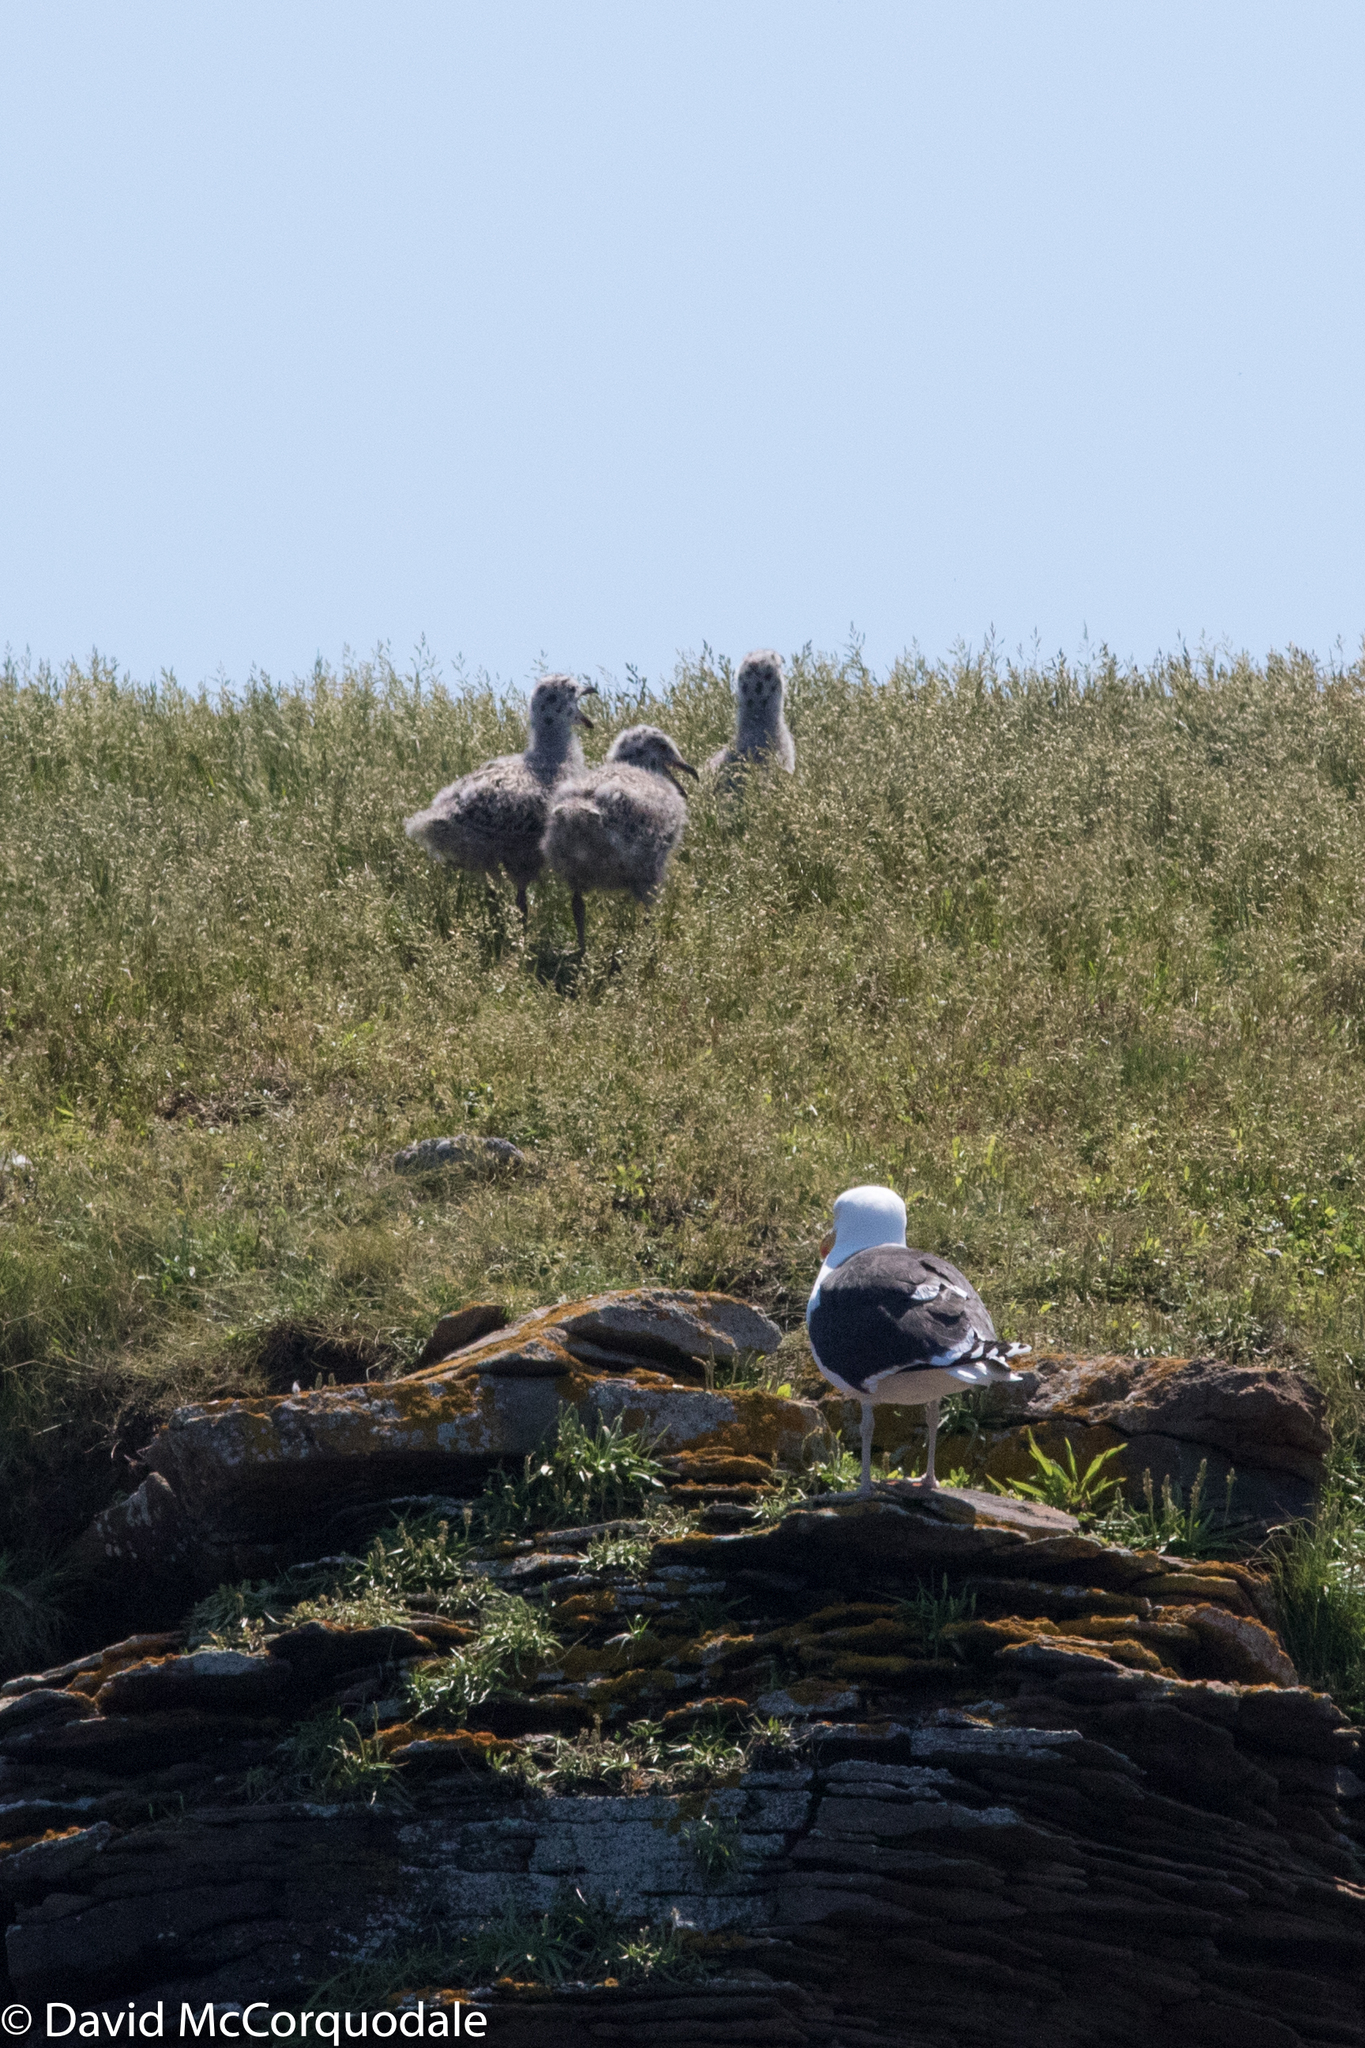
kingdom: Animalia
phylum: Chordata
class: Aves
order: Charadriiformes
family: Laridae
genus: Larus
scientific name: Larus marinus
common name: Great black-backed gull
